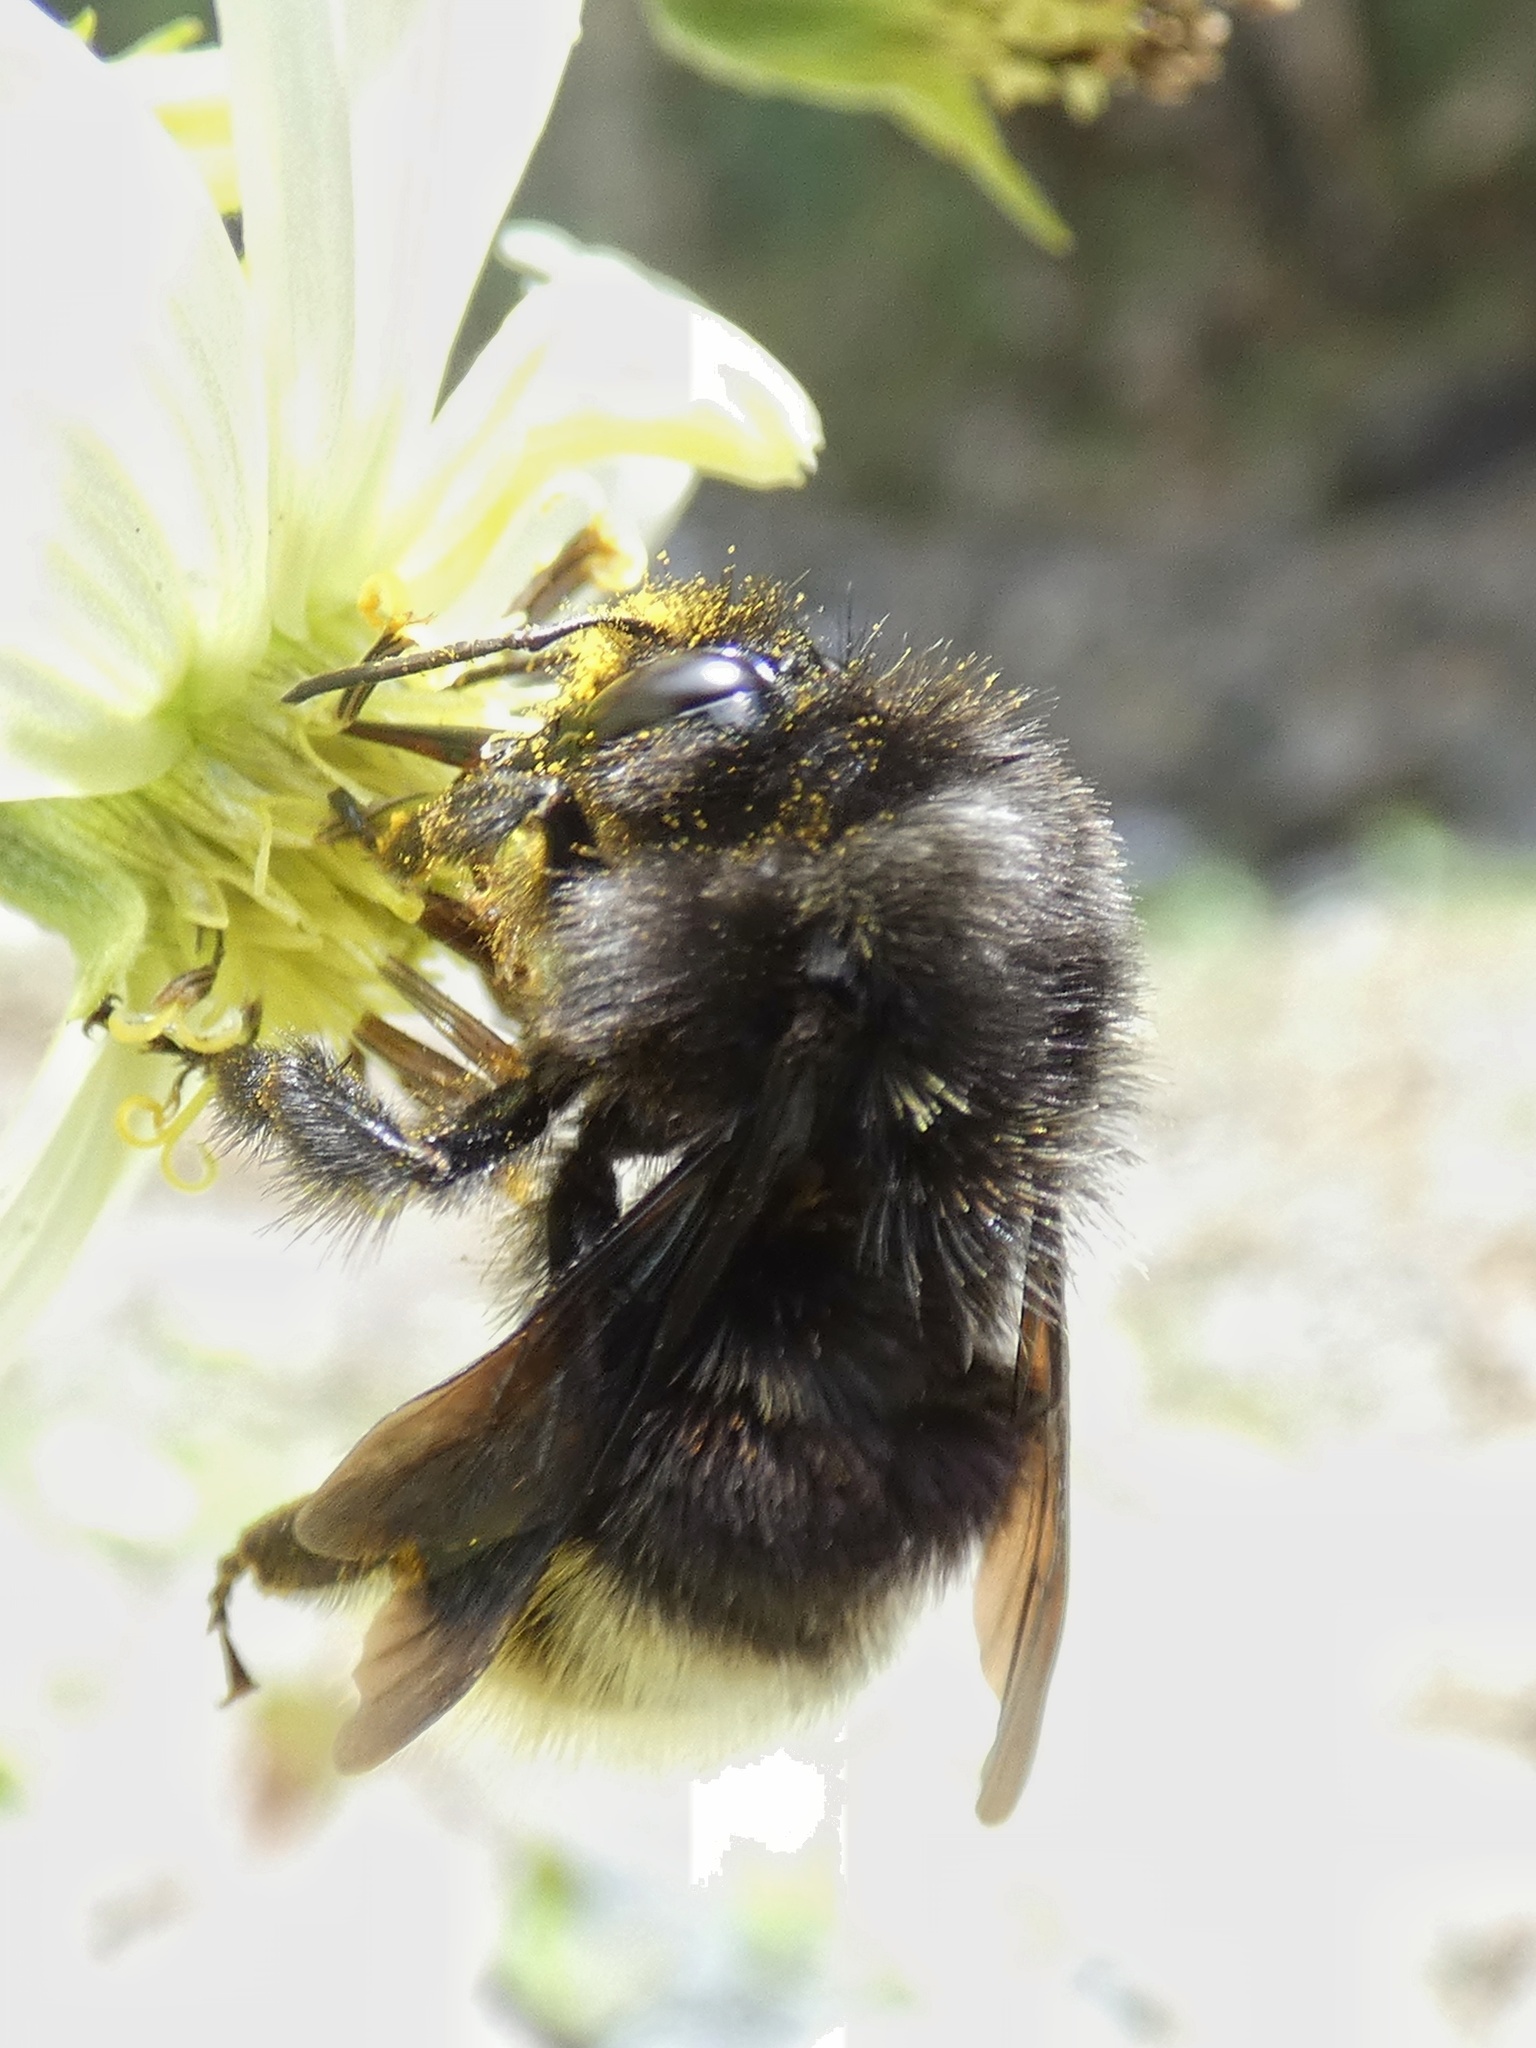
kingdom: Animalia
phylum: Arthropoda
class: Insecta
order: Hymenoptera
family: Apidae
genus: Bombus
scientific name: Bombus volucelloides
